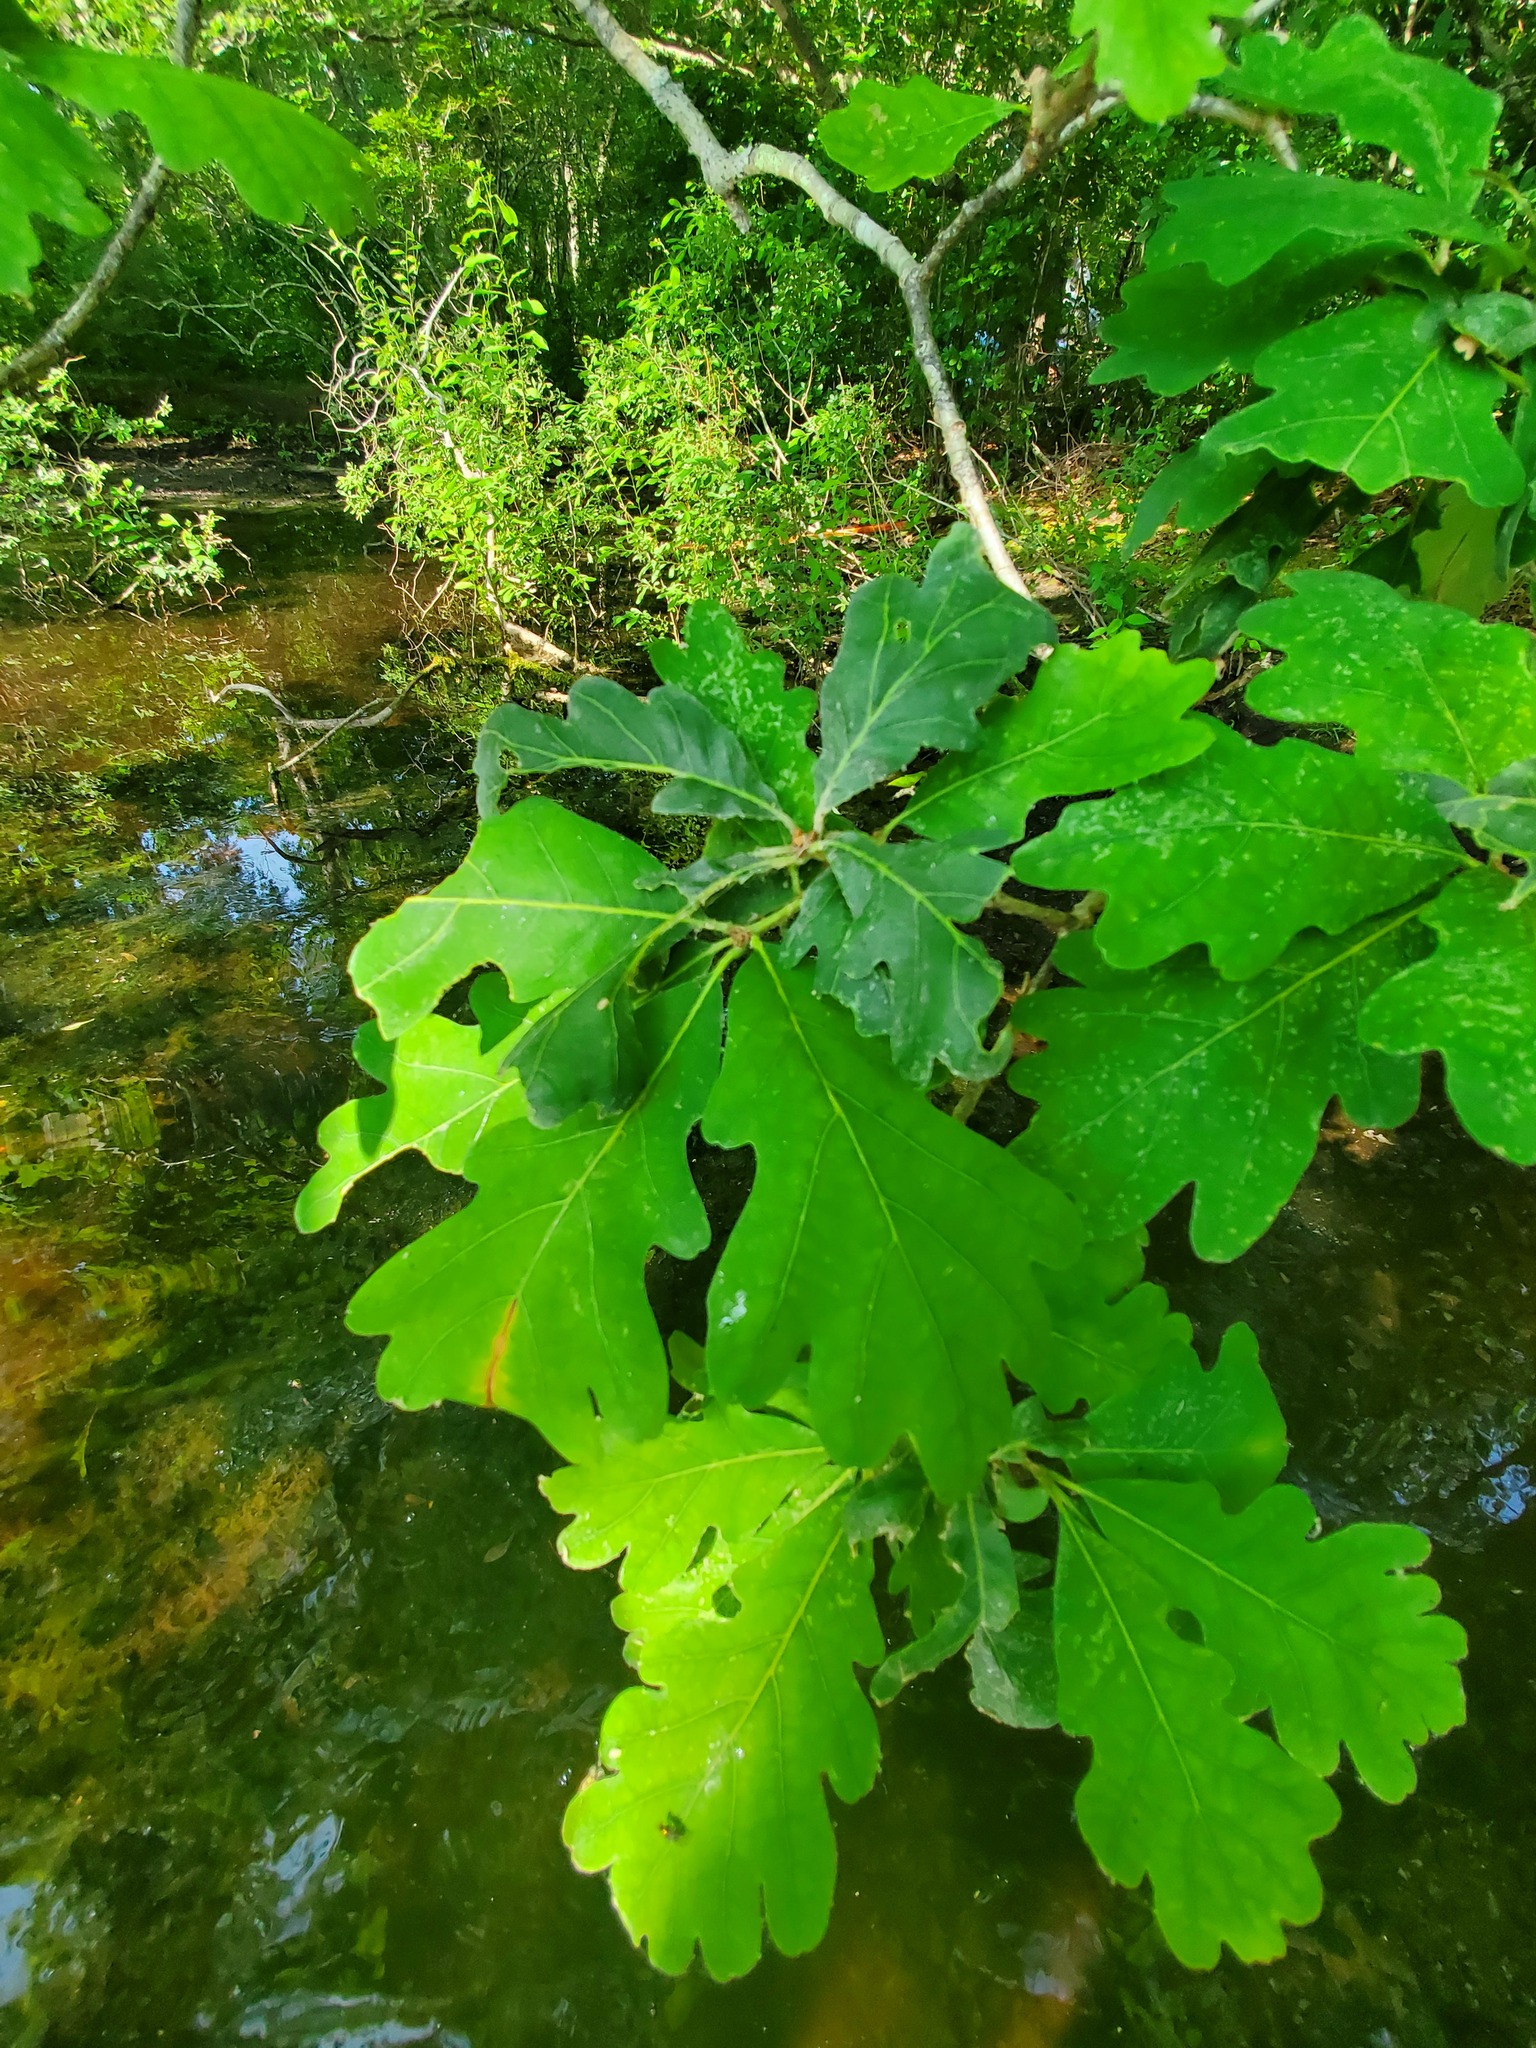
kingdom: Plantae
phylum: Tracheophyta
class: Magnoliopsida
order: Fagales
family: Fagaceae
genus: Quercus
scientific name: Quercus alba
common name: White oak
